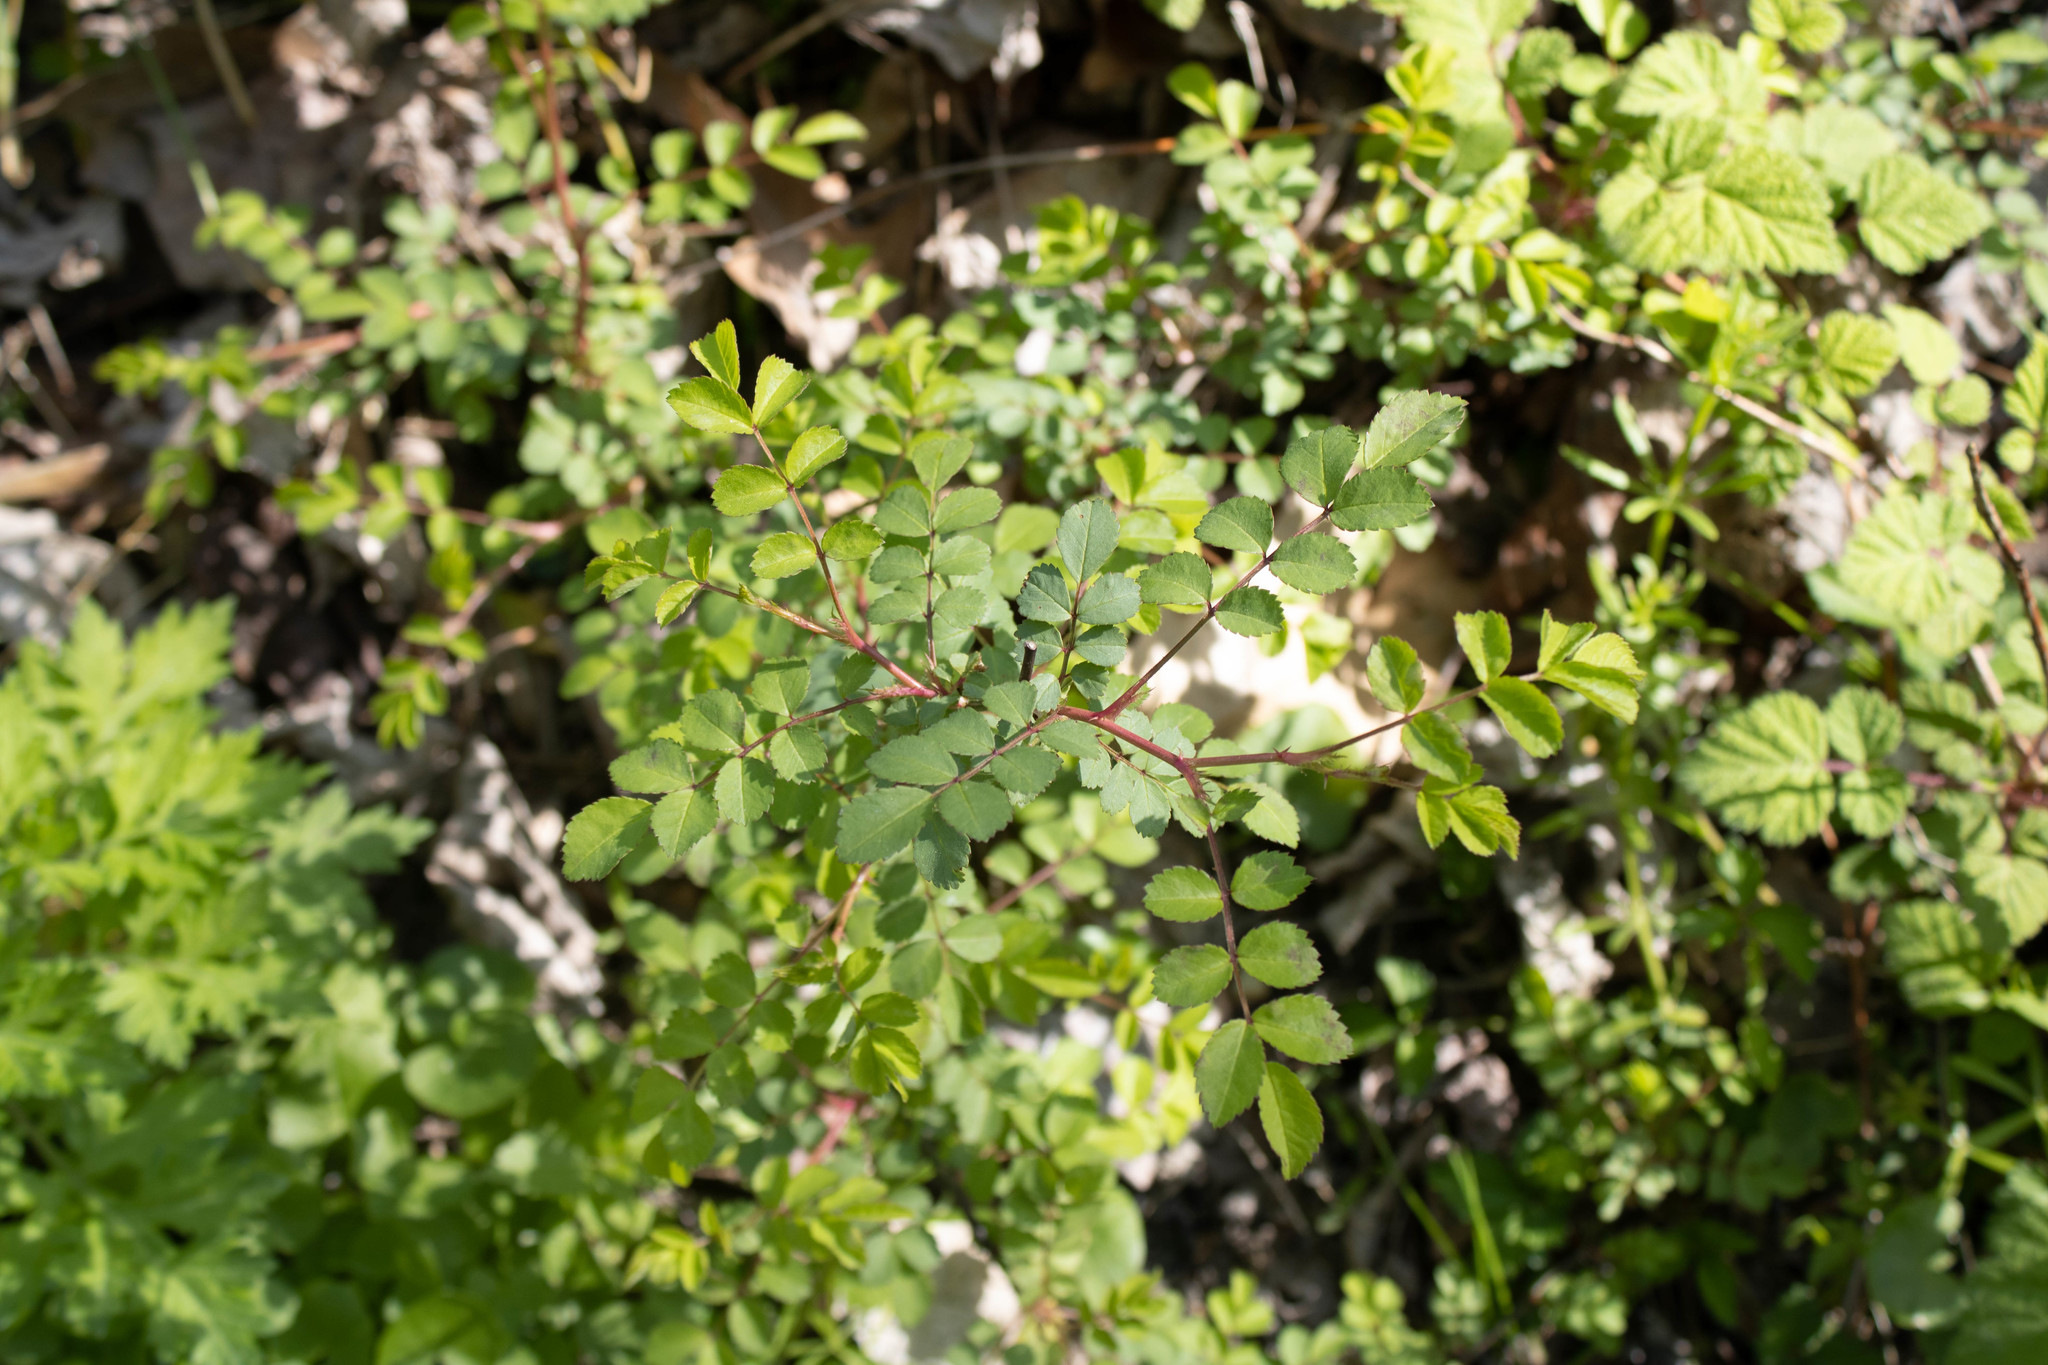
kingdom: Plantae
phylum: Tracheophyta
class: Magnoliopsida
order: Rosales
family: Rosaceae
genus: Rosa
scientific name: Rosa multiflora
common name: Multiflora rose
